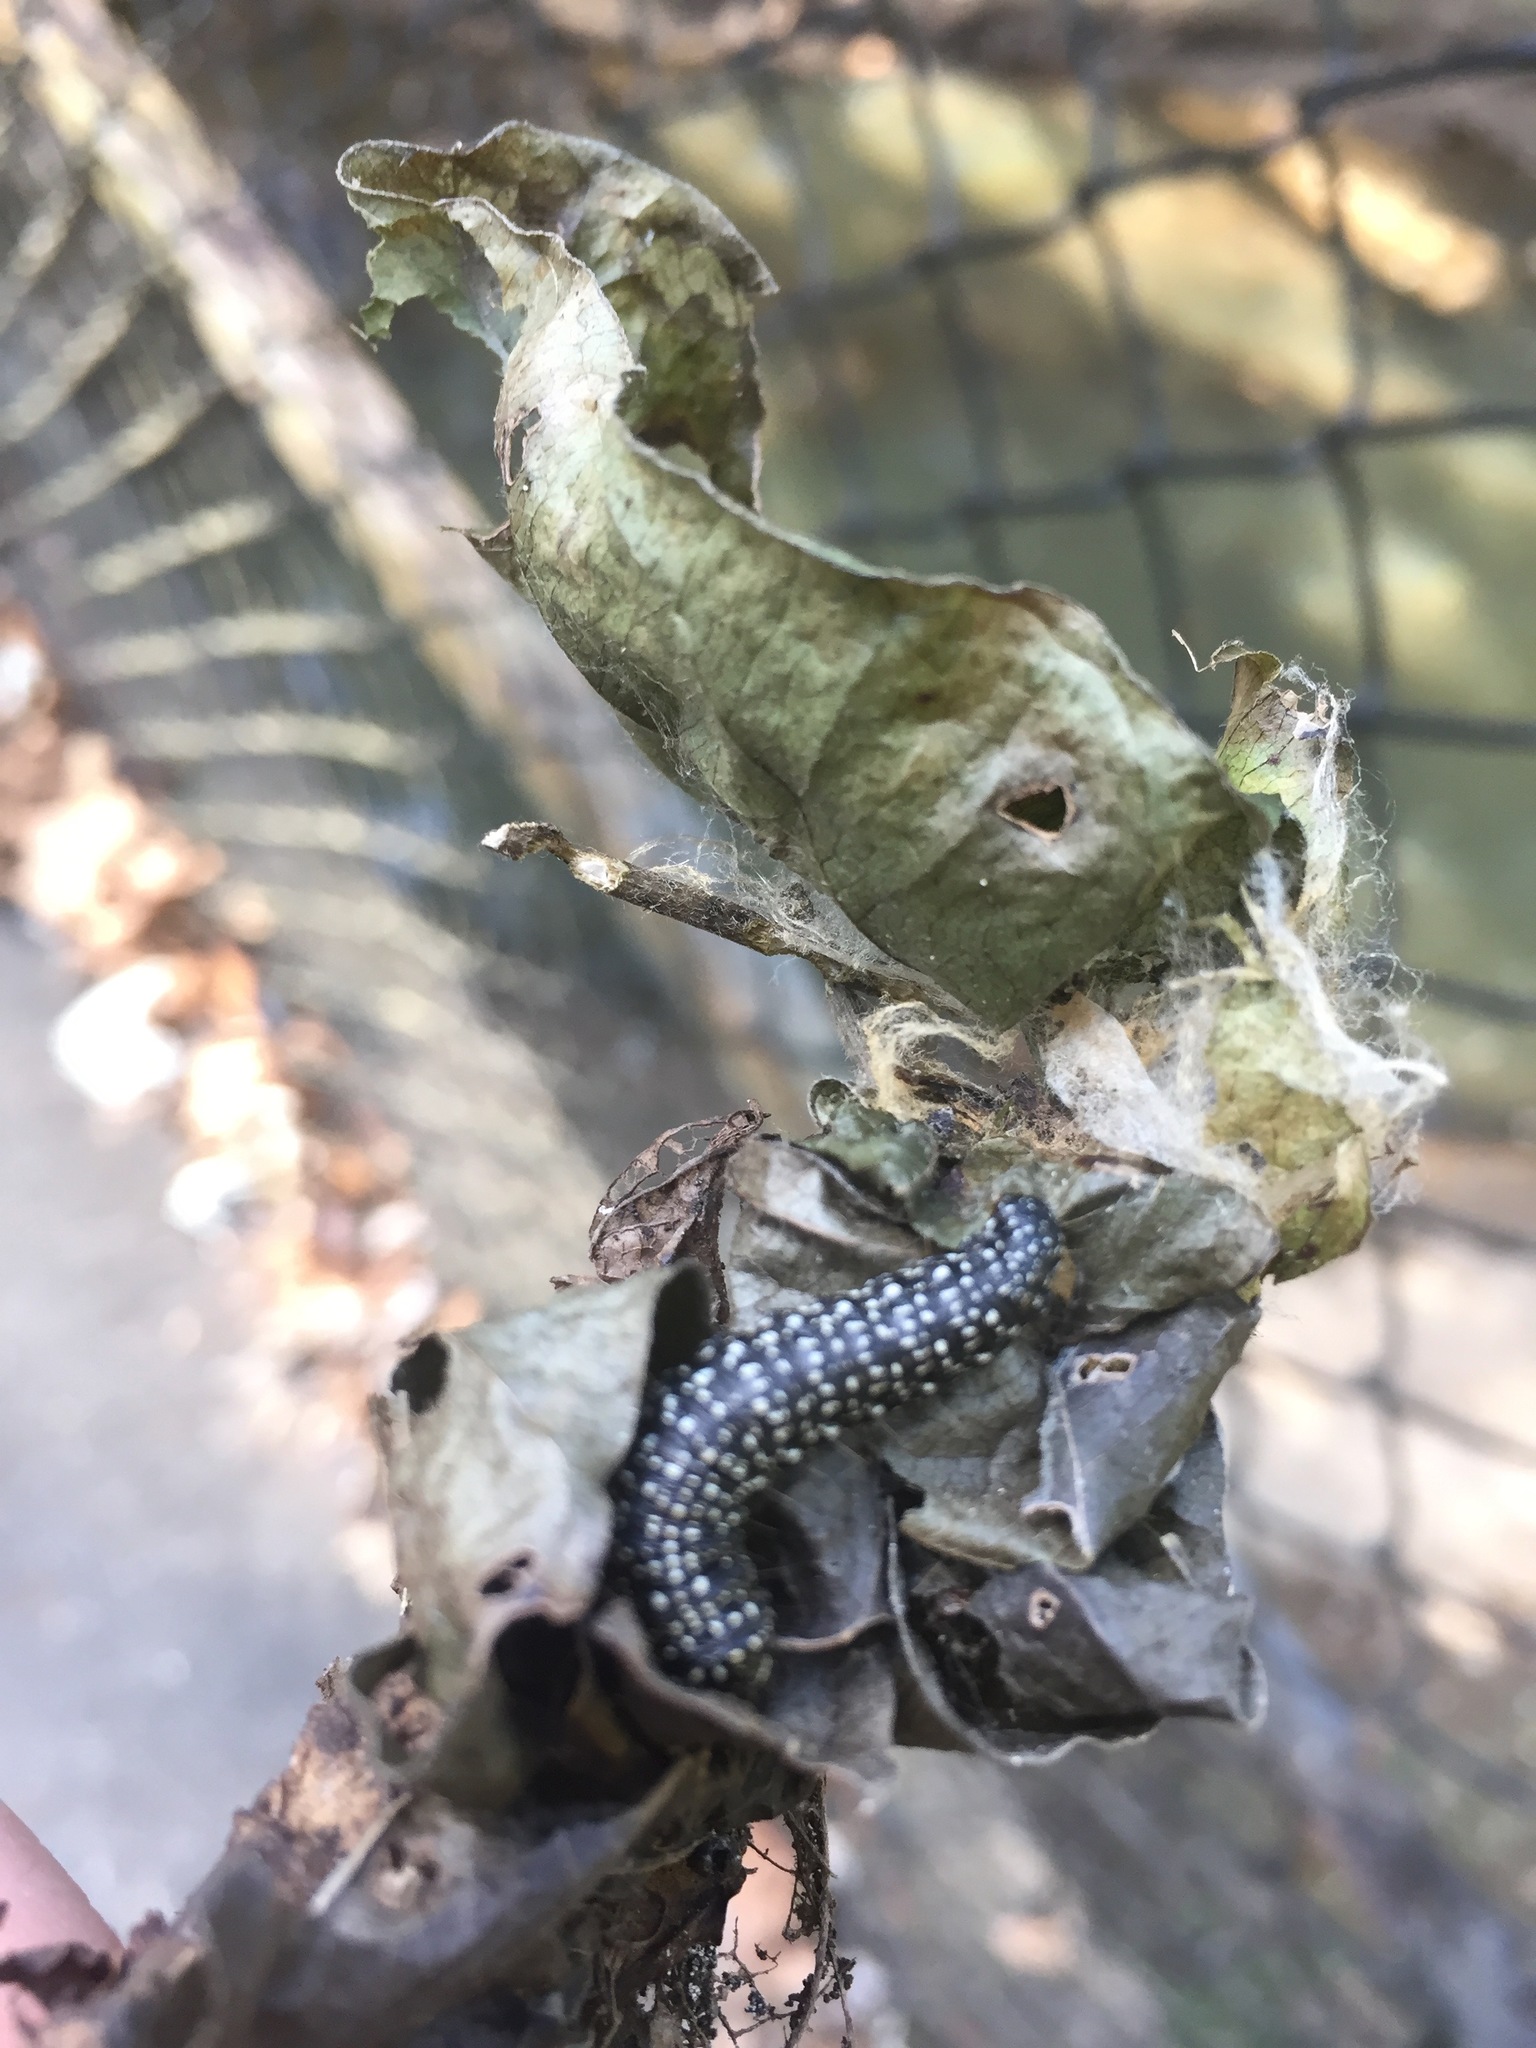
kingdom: Animalia
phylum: Arthropoda
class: Insecta
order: Lepidoptera
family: Pyralidae
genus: Omphalocera
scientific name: Omphalocera cariosa
